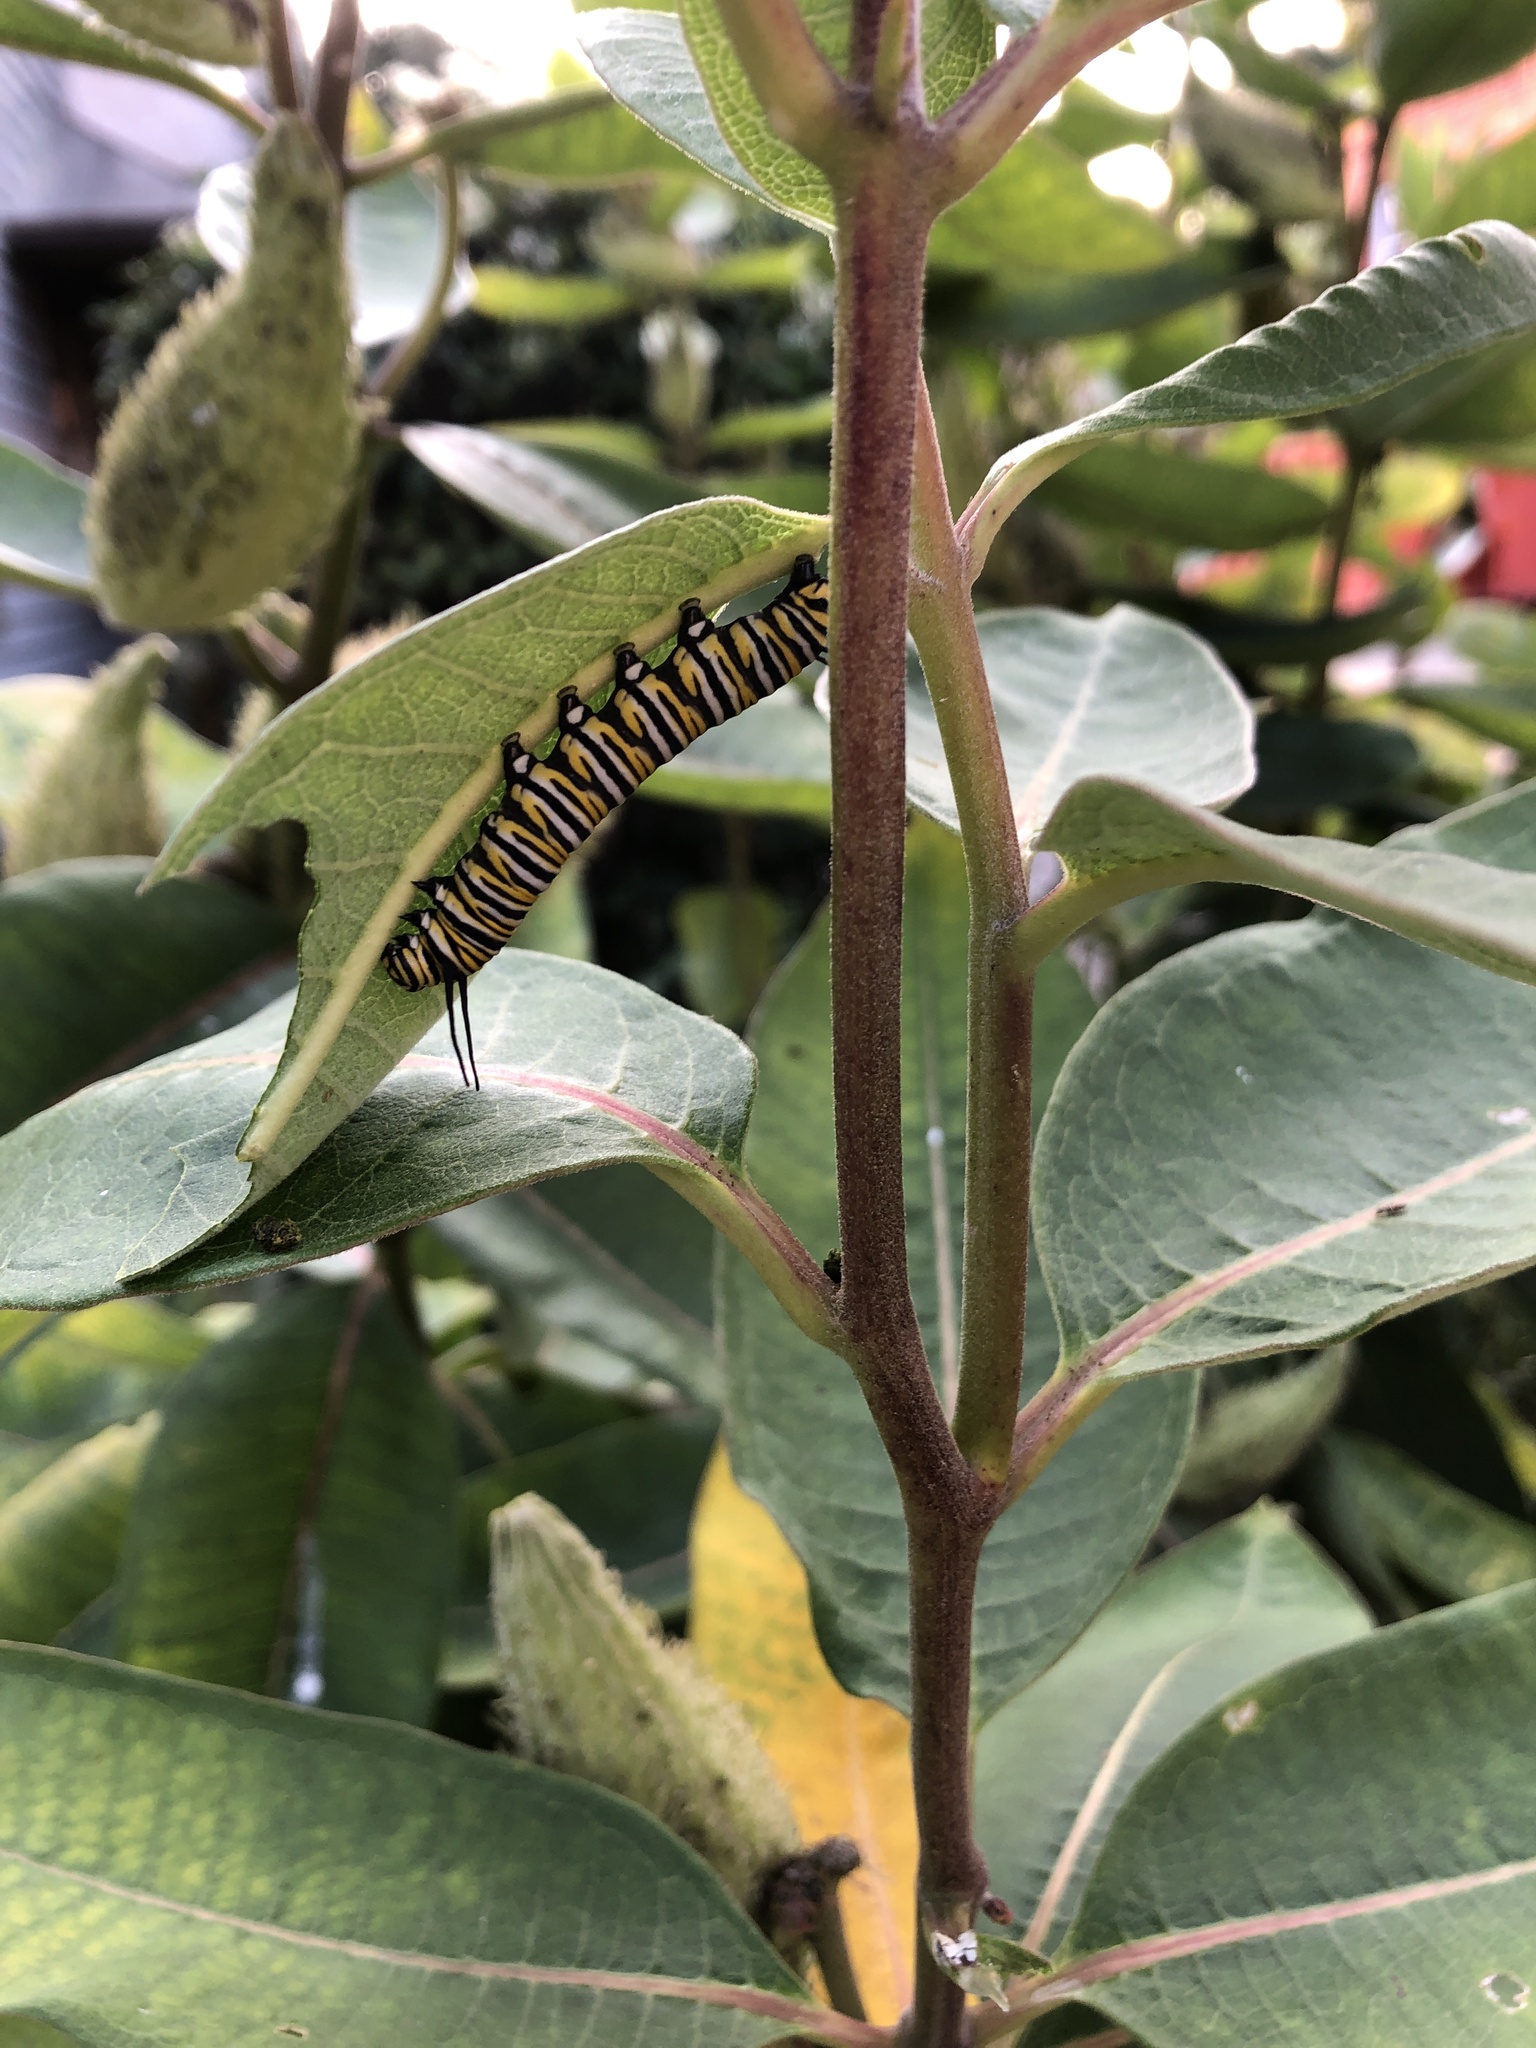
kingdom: Animalia
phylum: Arthropoda
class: Insecta
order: Lepidoptera
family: Nymphalidae
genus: Danaus
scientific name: Danaus plexippus
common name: Monarch
